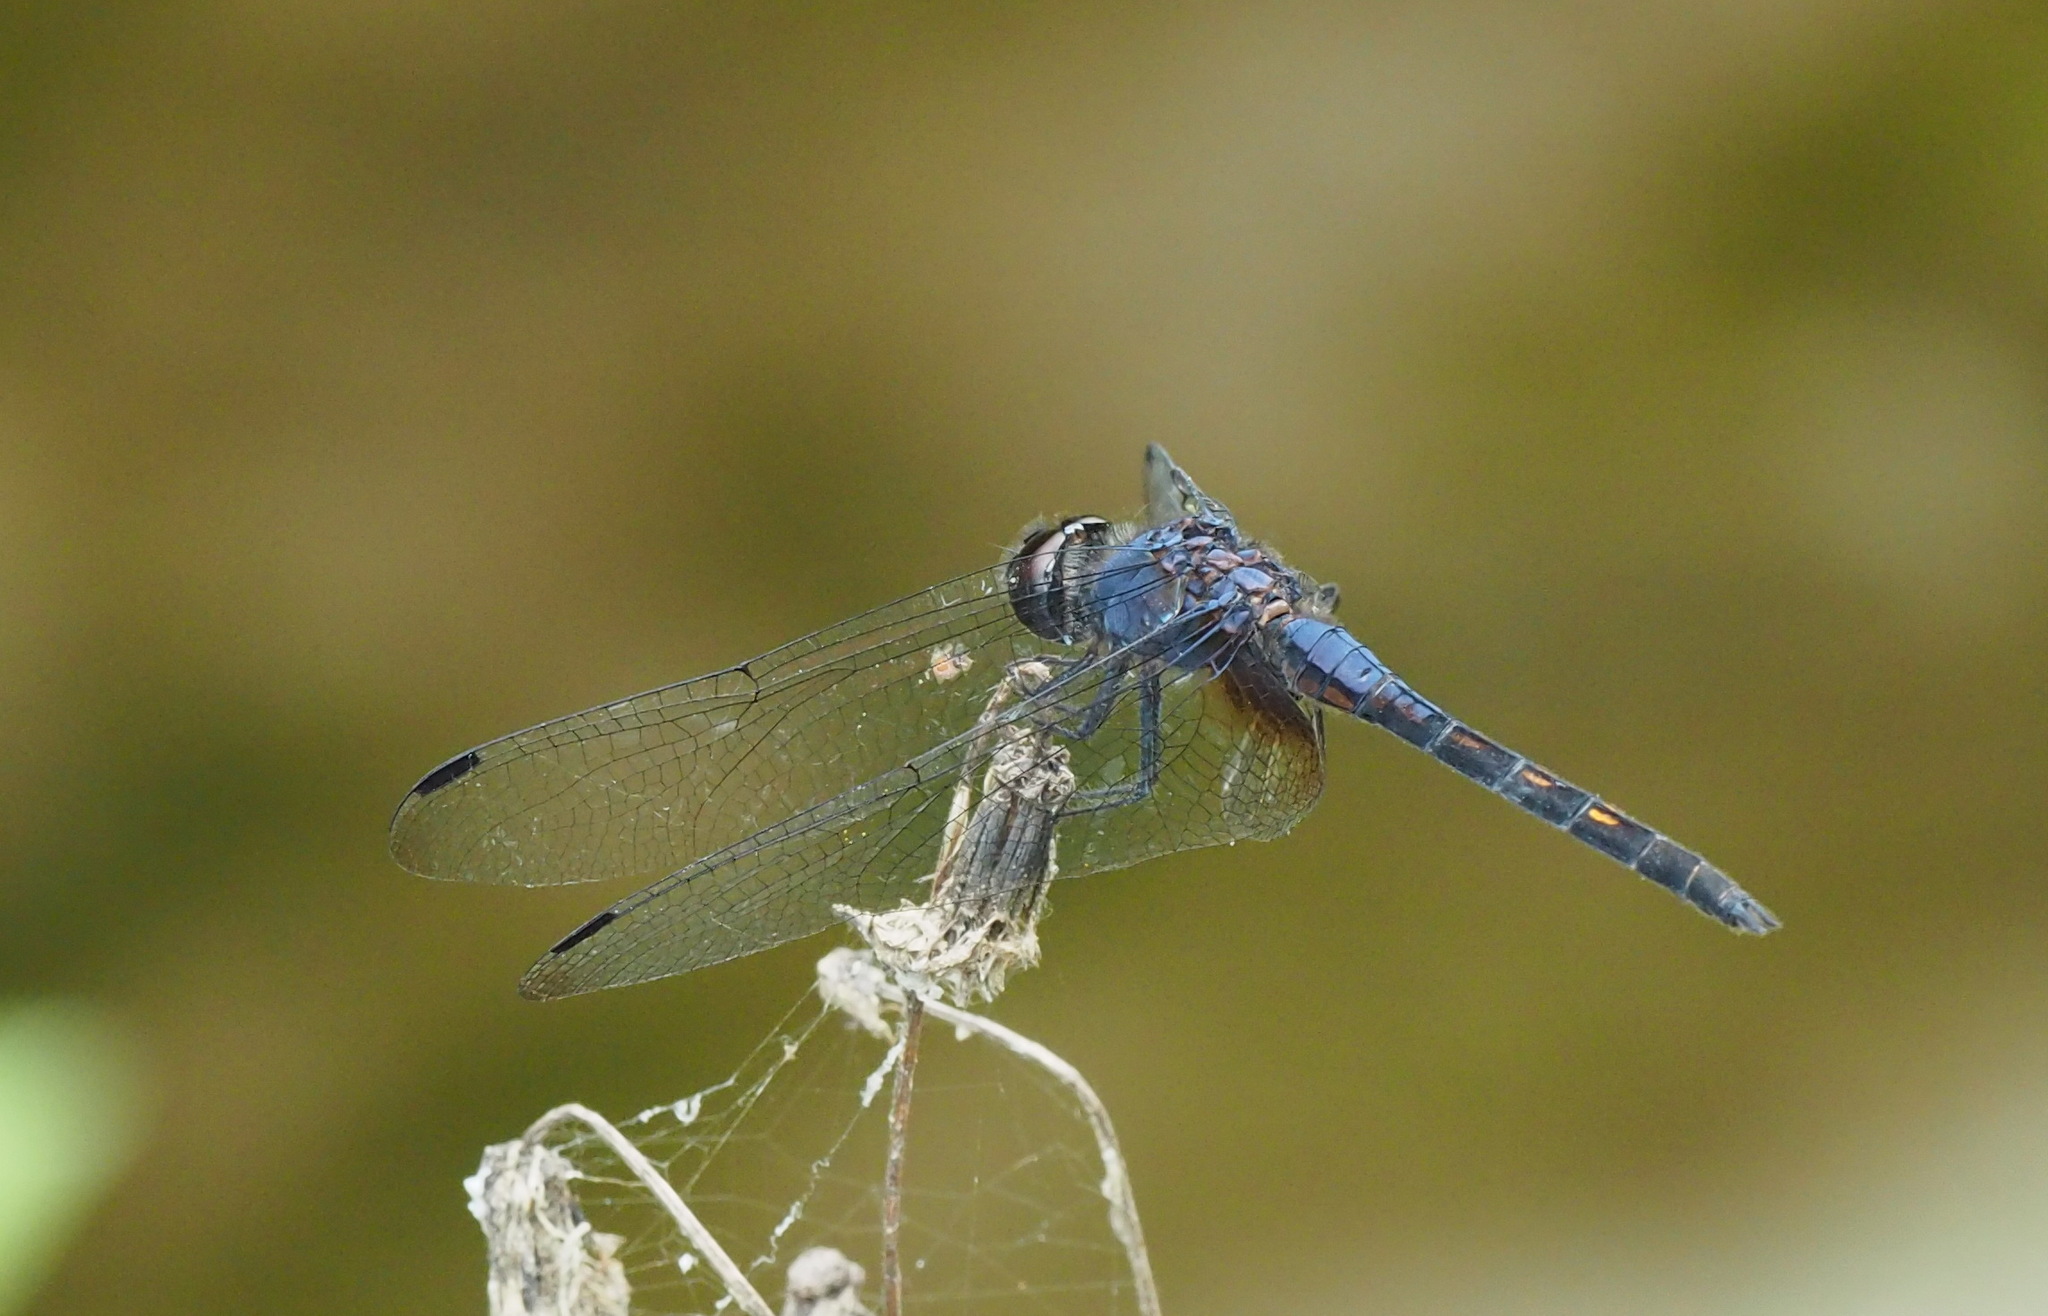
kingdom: Animalia
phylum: Arthropoda
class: Insecta
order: Odonata
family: Libellulidae
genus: Trithemis
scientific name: Trithemis festiva
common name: Indigo dropwing
